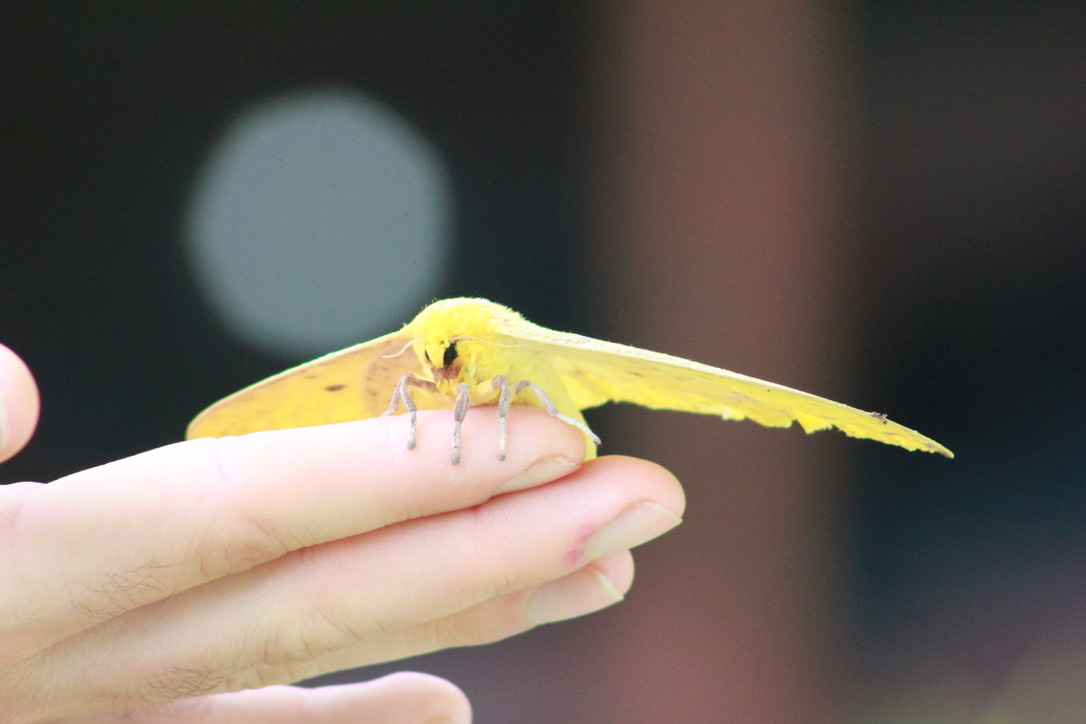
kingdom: Animalia
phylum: Arthropoda
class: Insecta
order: Lepidoptera
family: Saturniidae
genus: Eacles
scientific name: Eacles imperialis
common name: Imperial moth
